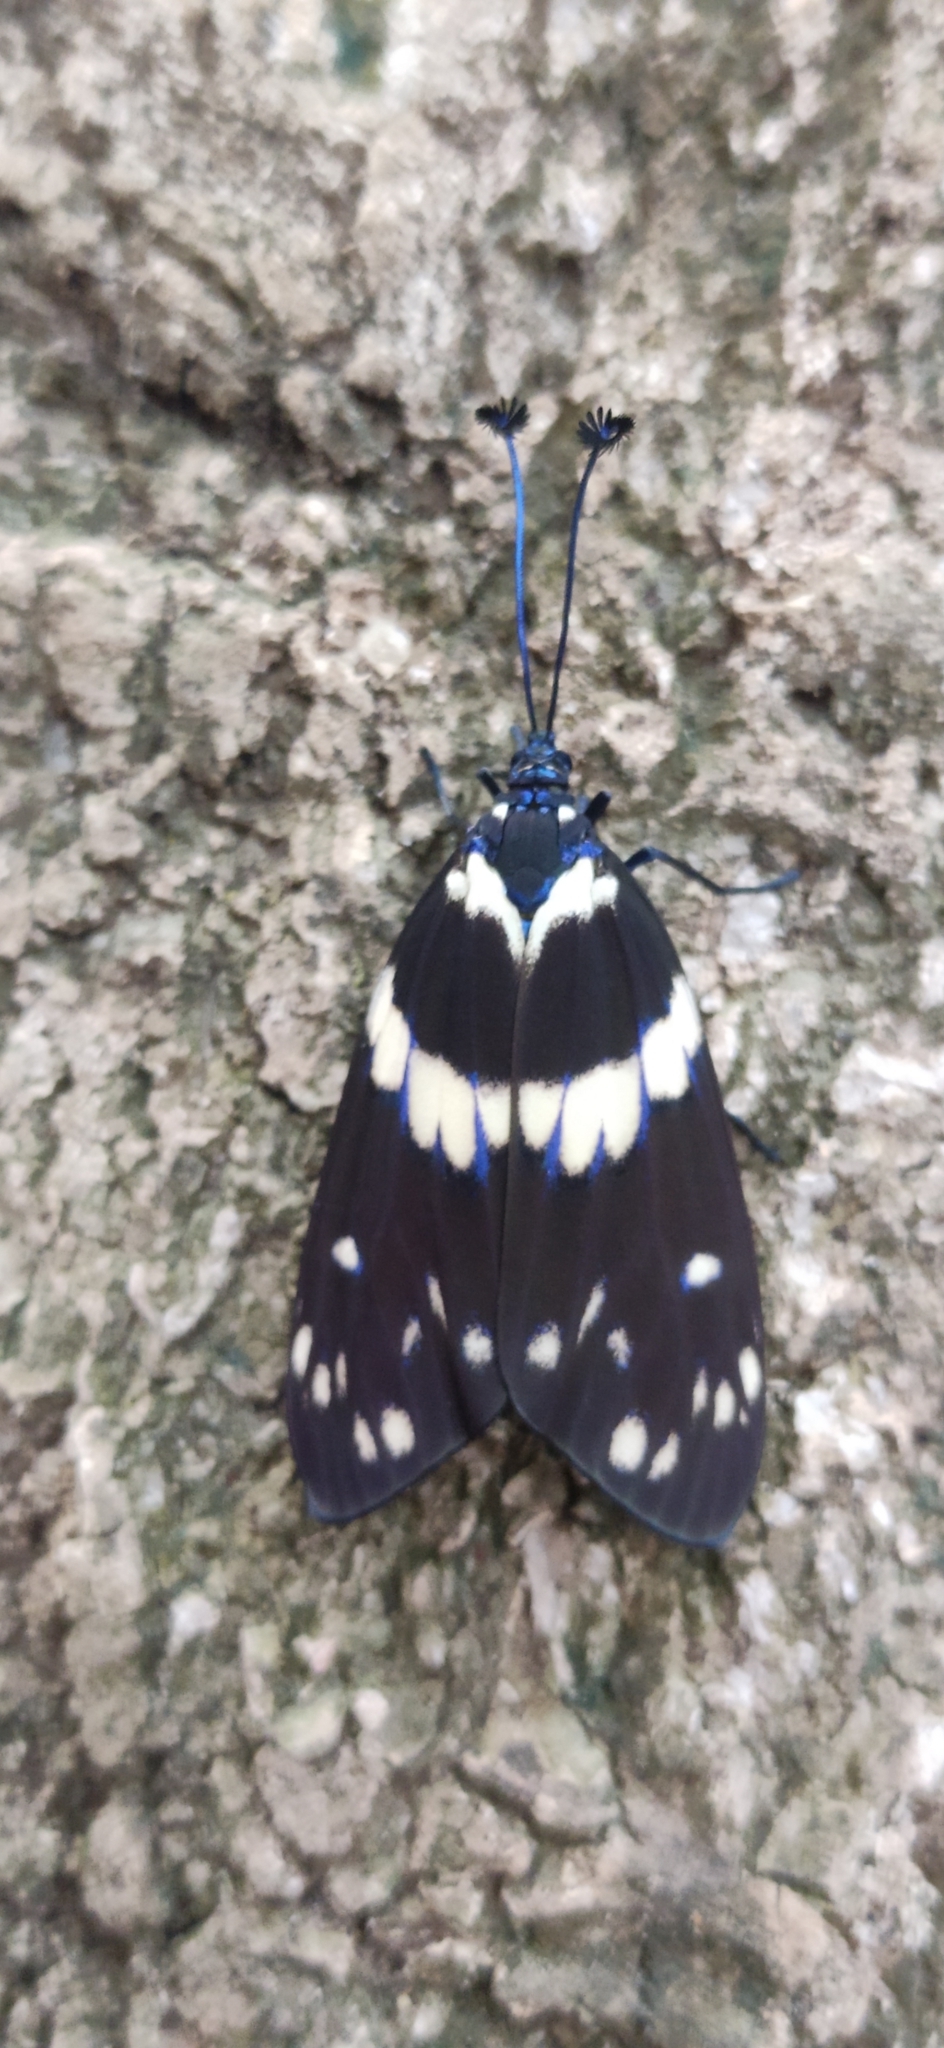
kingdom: Animalia
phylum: Arthropoda
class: Insecta
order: Lepidoptera
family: Zygaenidae
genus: Eterusia
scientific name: Eterusia aedea
